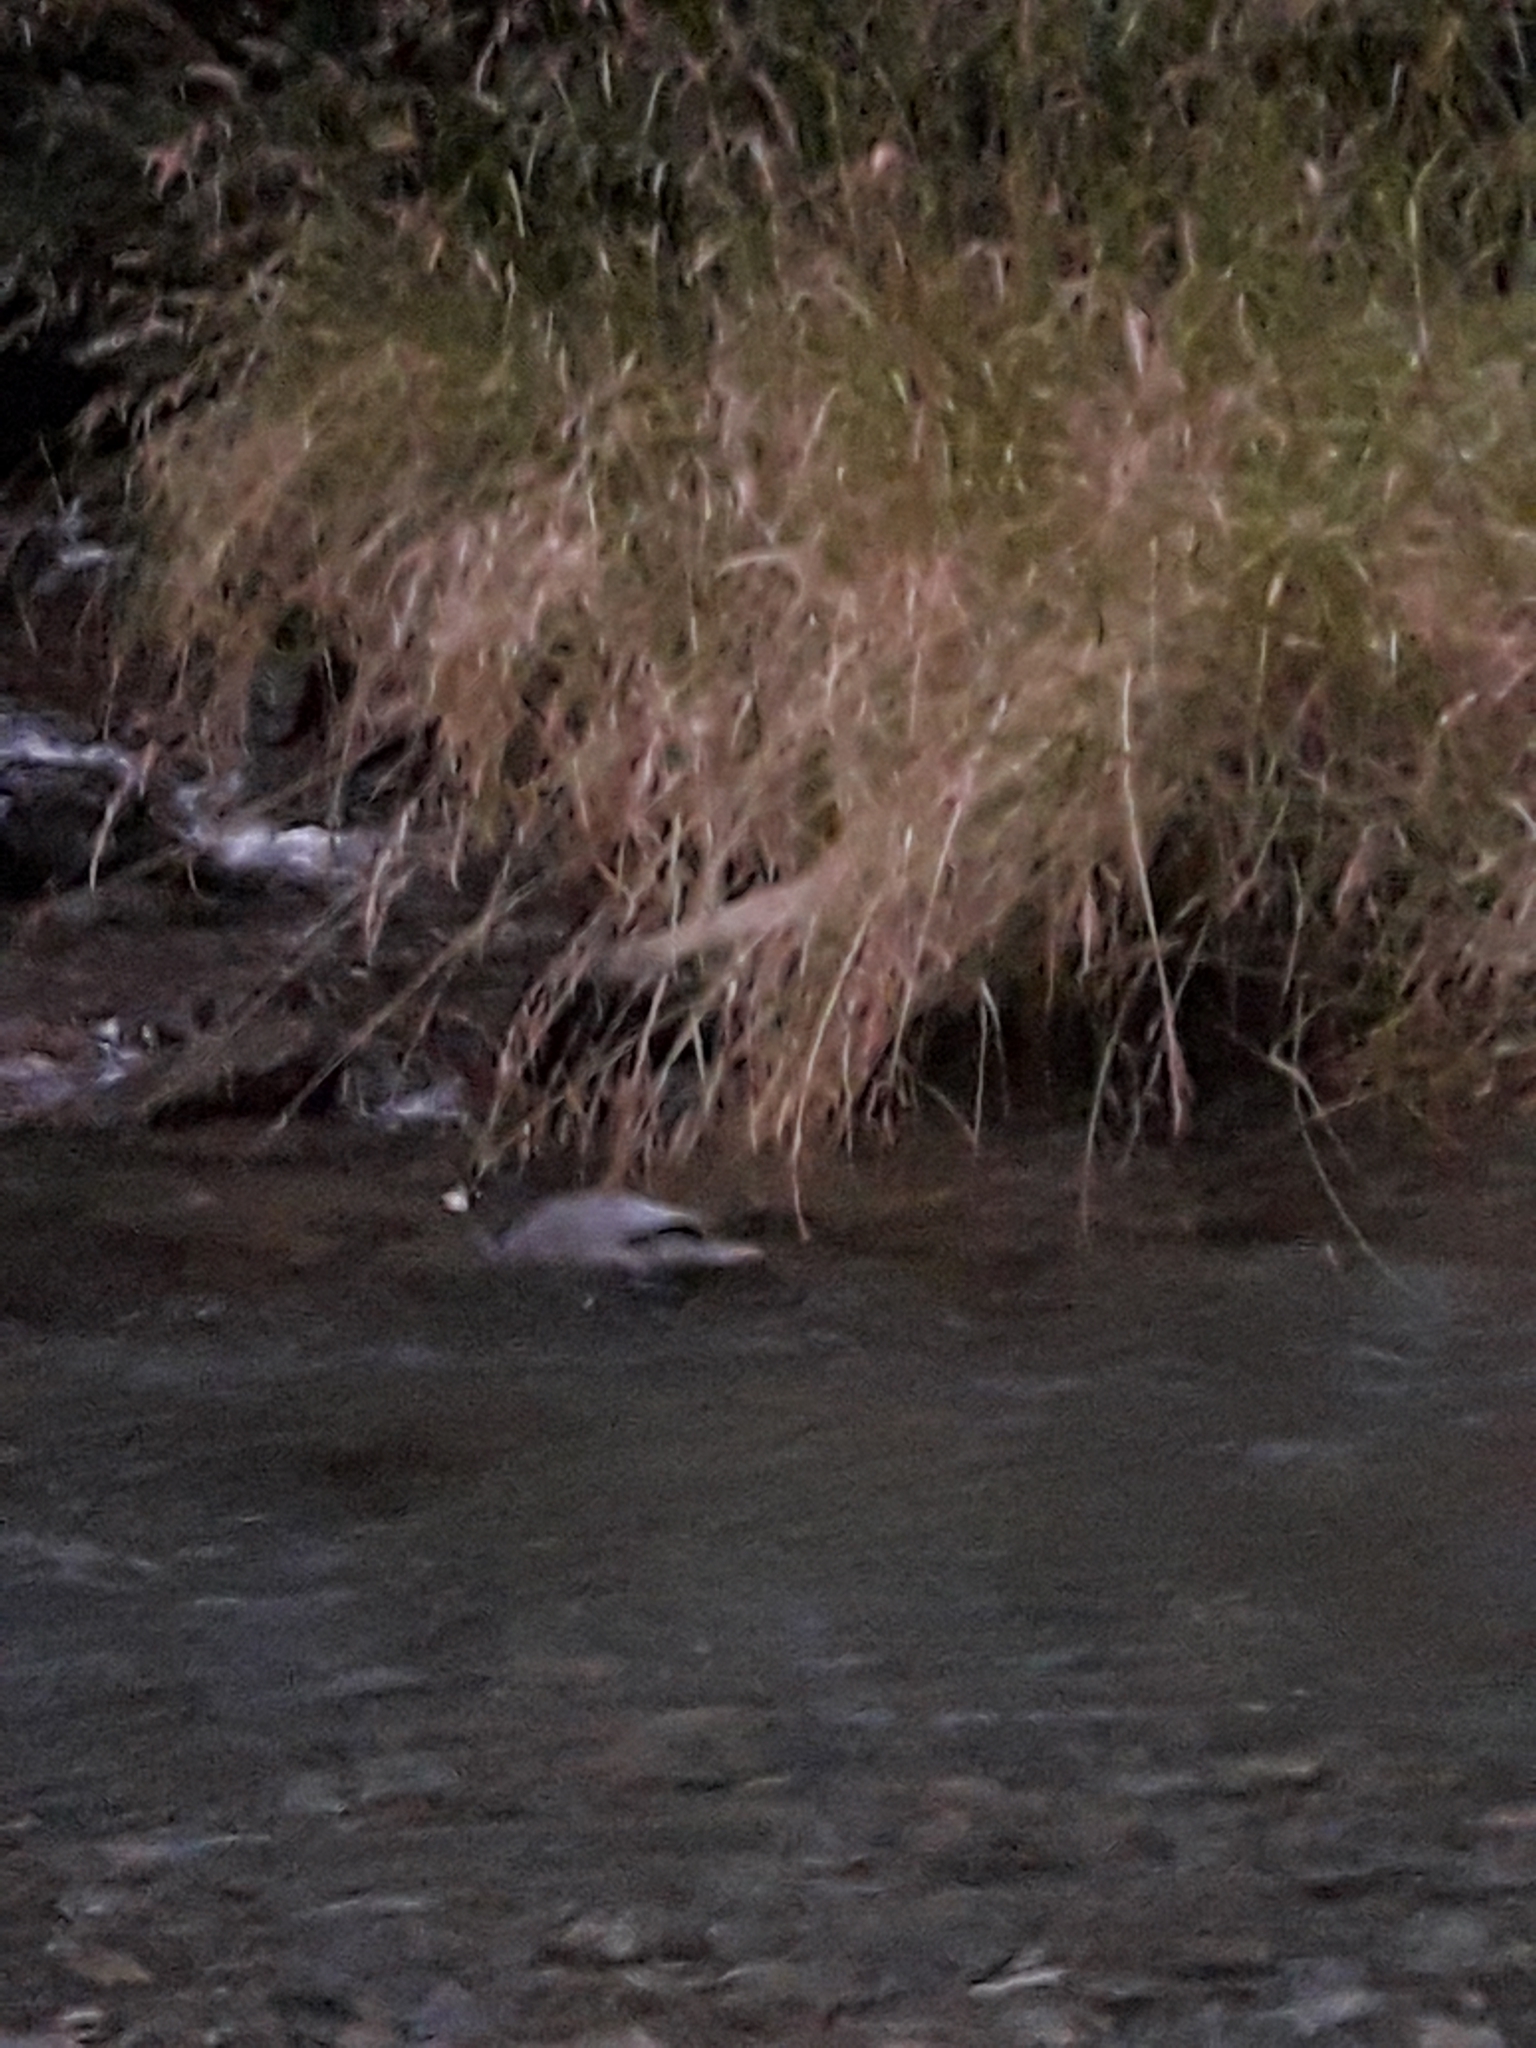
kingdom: Animalia
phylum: Chordata
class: Aves
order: Anseriformes
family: Anatidae
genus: Hymenolaimus
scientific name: Hymenolaimus malacorhynchos
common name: Blue duck
